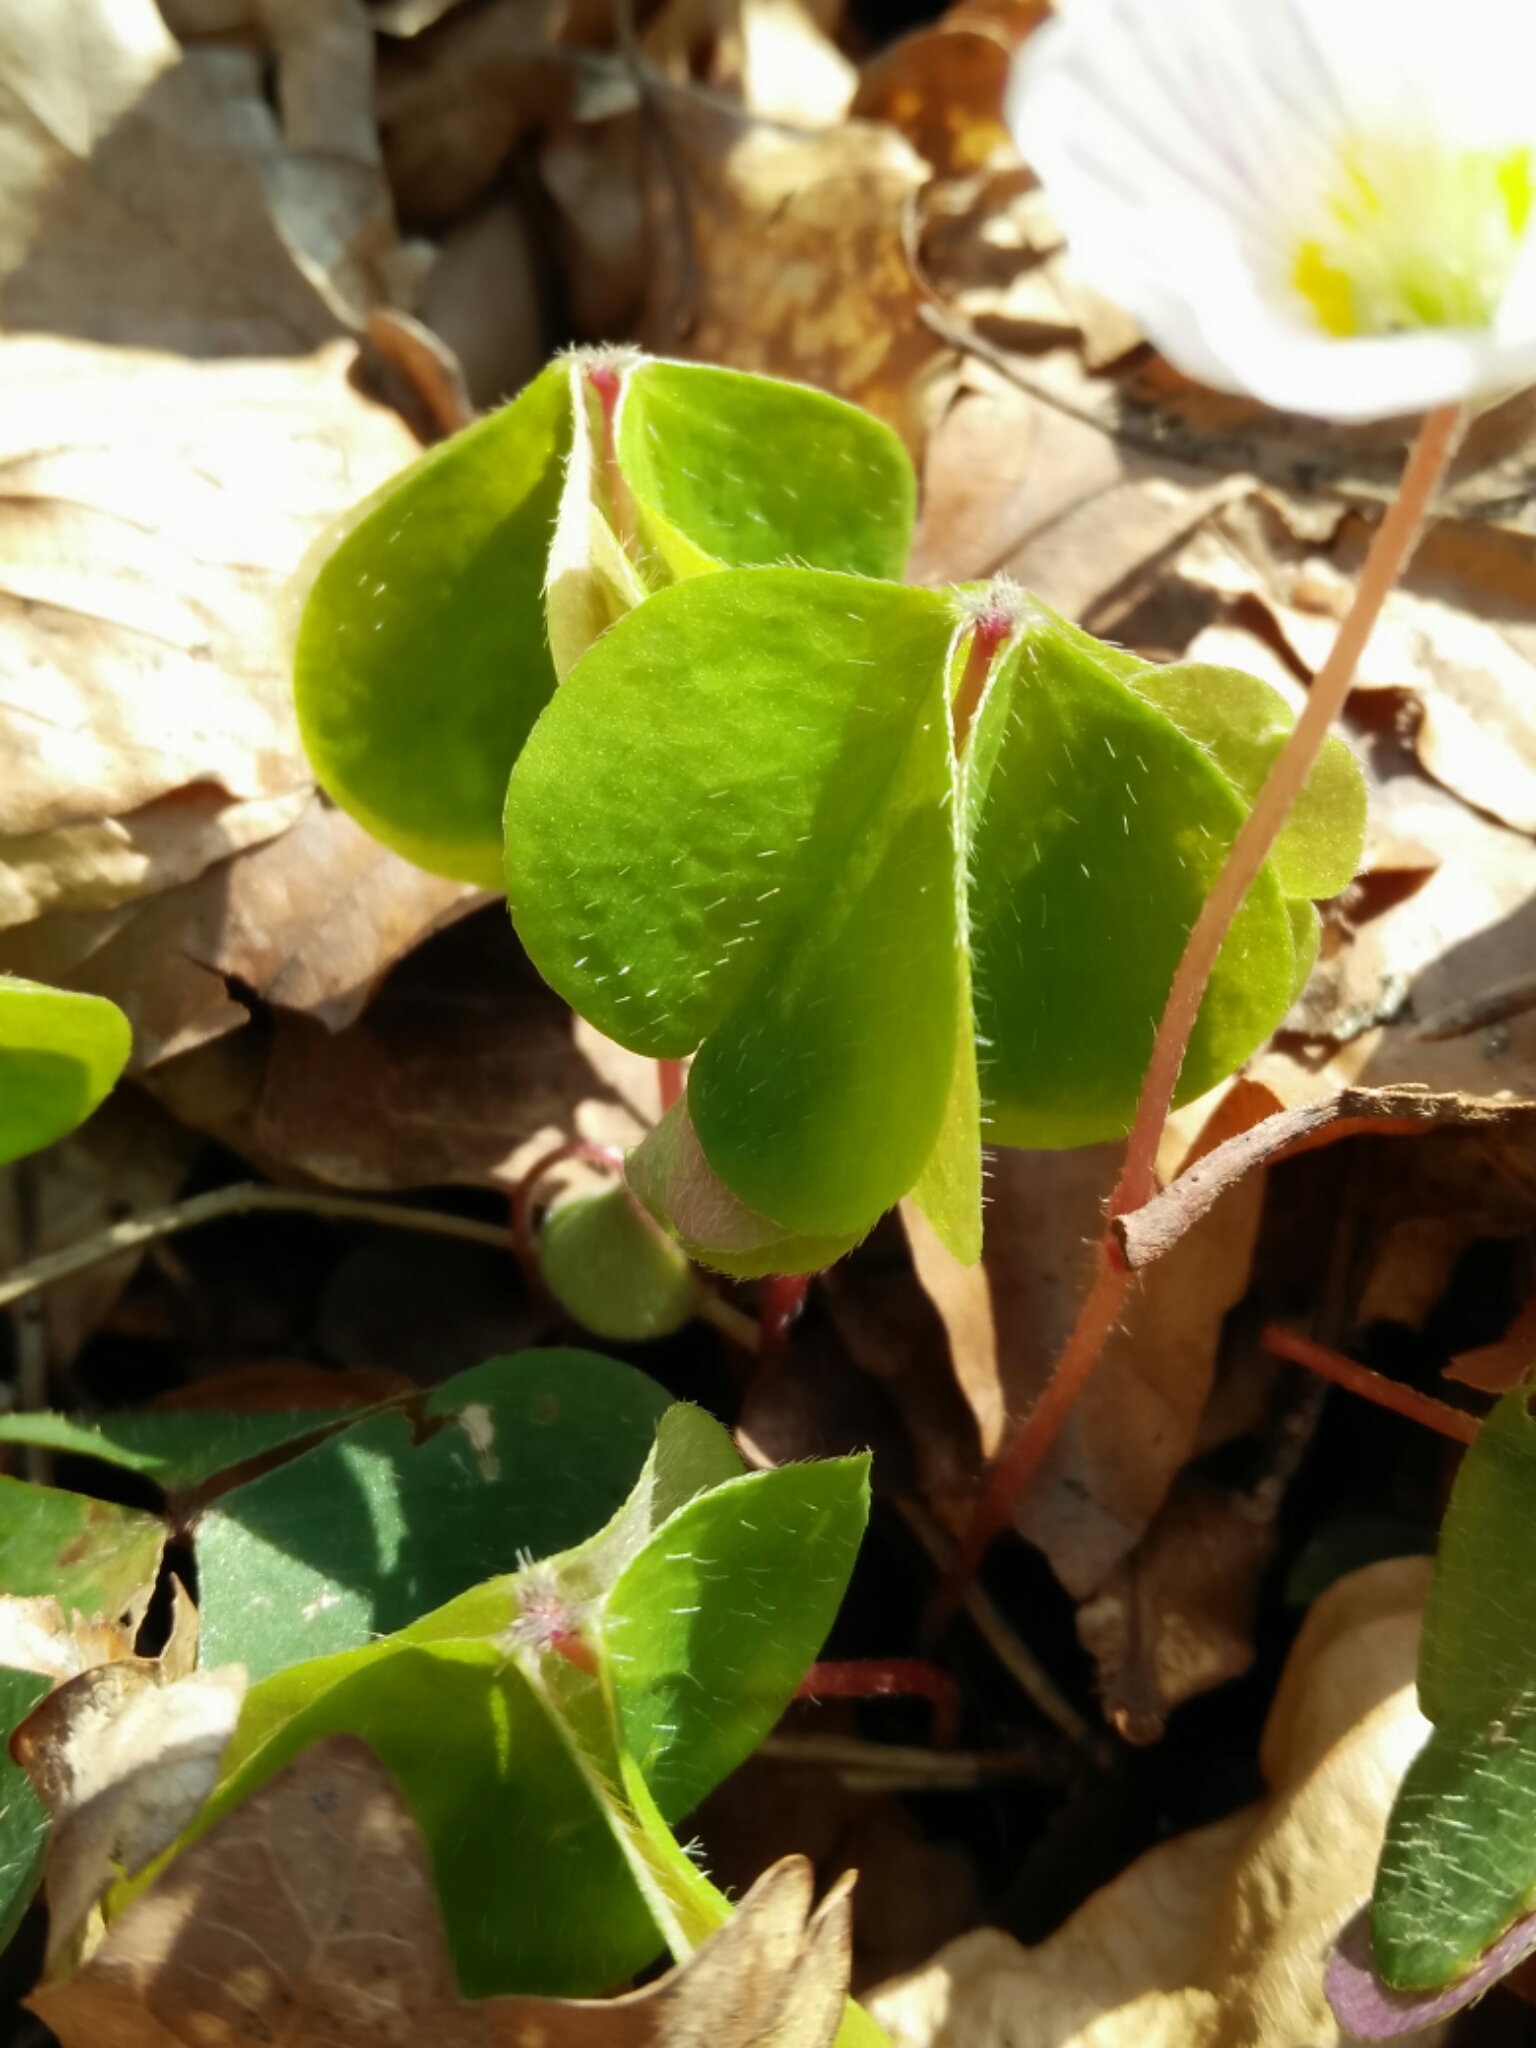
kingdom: Plantae
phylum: Tracheophyta
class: Magnoliopsida
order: Oxalidales
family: Oxalidaceae
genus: Oxalis
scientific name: Oxalis acetosella
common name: Wood-sorrel
